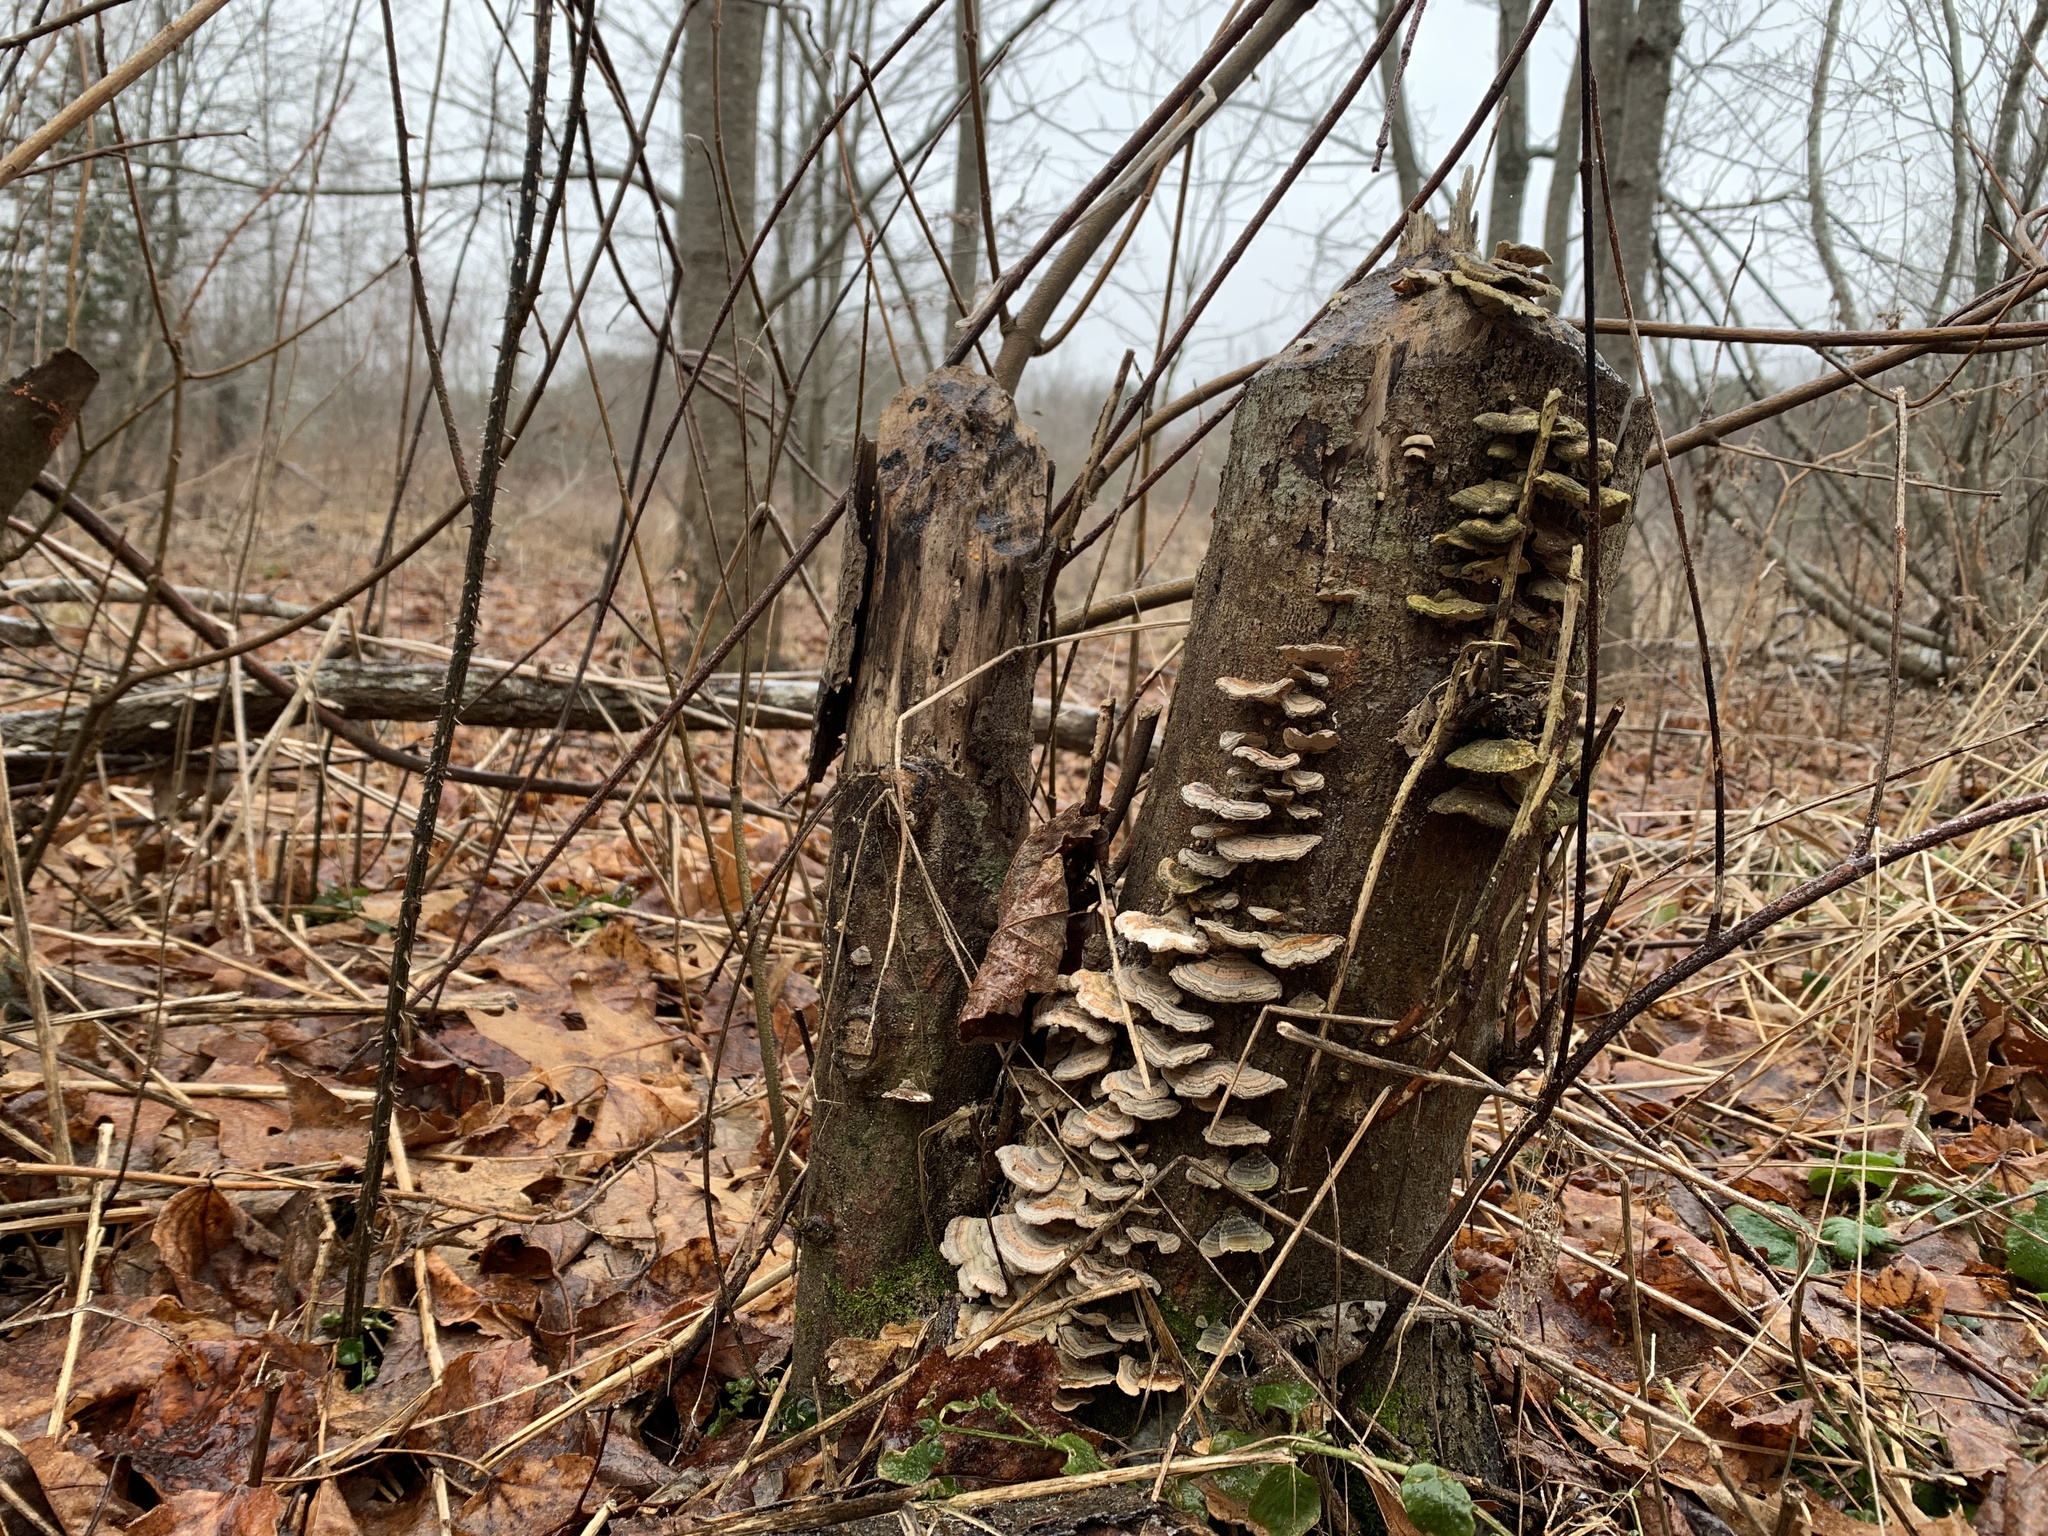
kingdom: Animalia
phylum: Chordata
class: Mammalia
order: Rodentia
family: Castoridae
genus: Castor
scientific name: Castor canadensis
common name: American beaver
